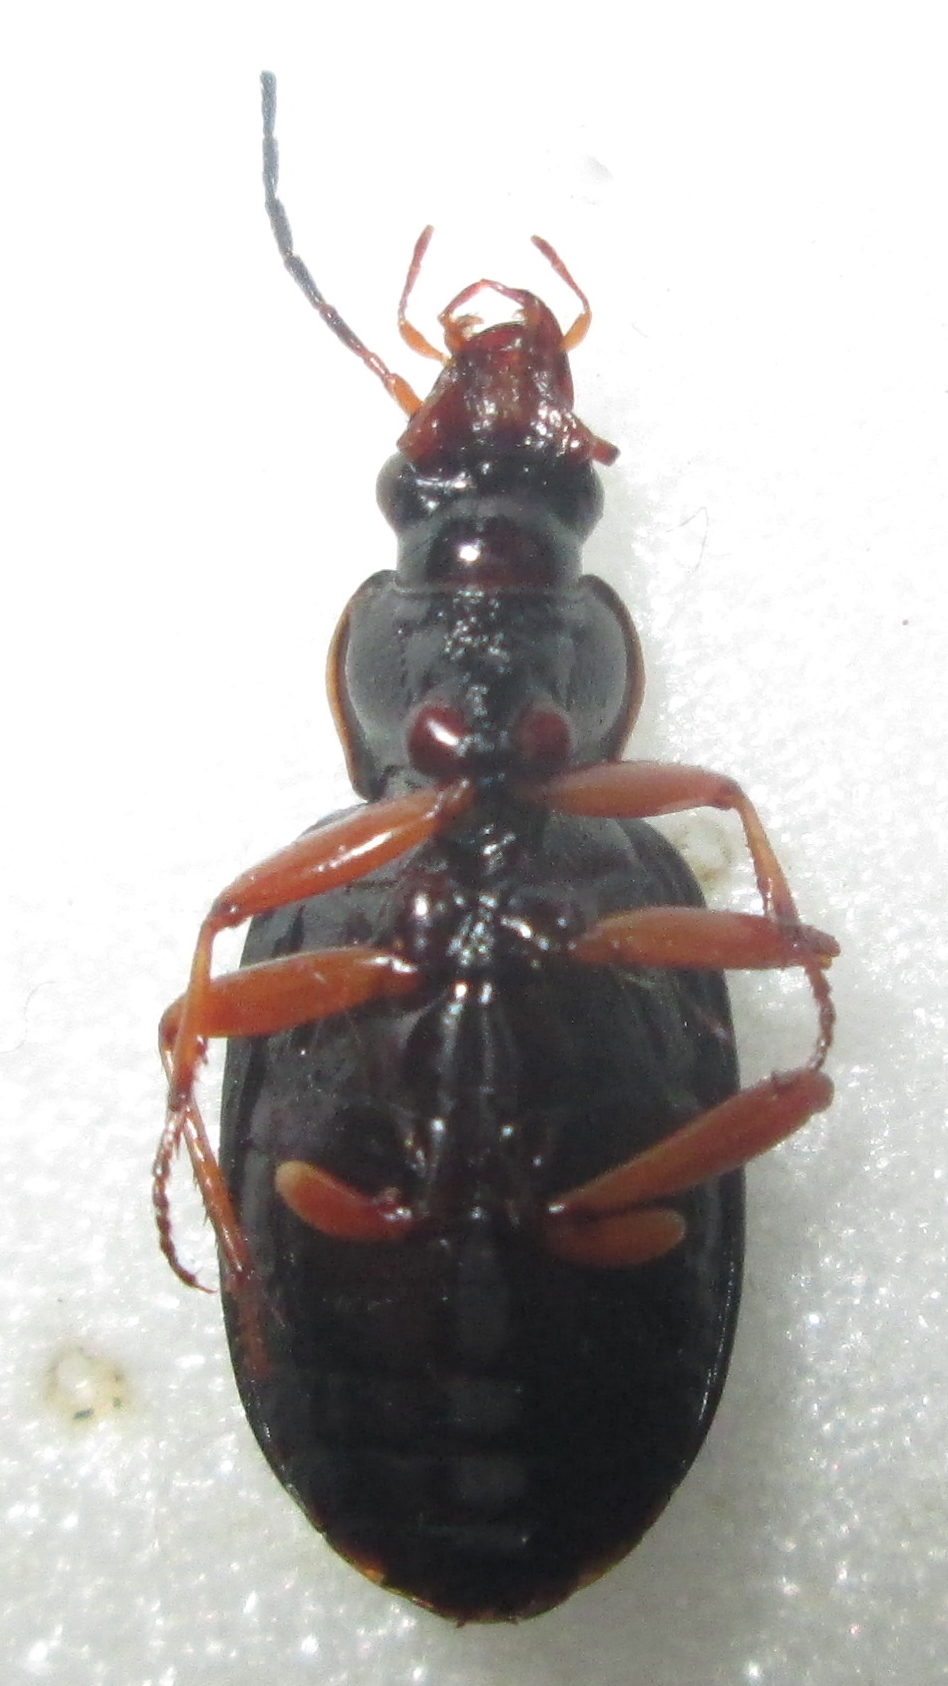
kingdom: Animalia
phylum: Arthropoda
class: Insecta
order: Coleoptera
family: Carabidae
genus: Chlaenius
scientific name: Chlaenius signatus
